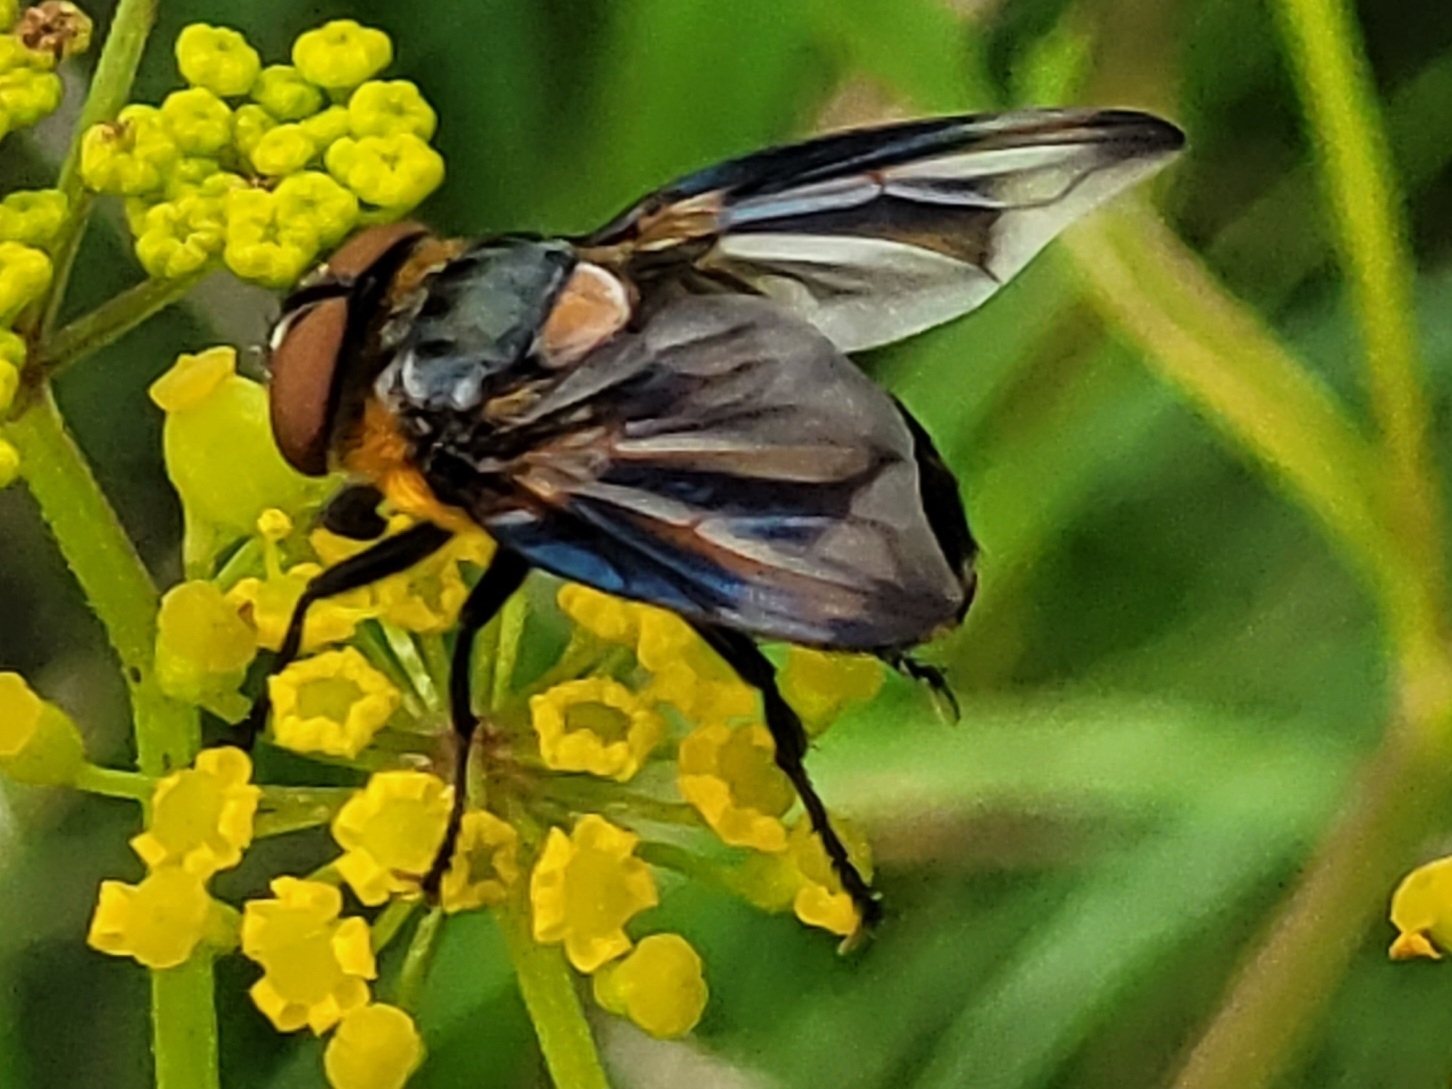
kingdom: Animalia
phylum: Arthropoda
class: Insecta
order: Diptera
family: Tachinidae
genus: Phasia
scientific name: Phasia hemiptera
